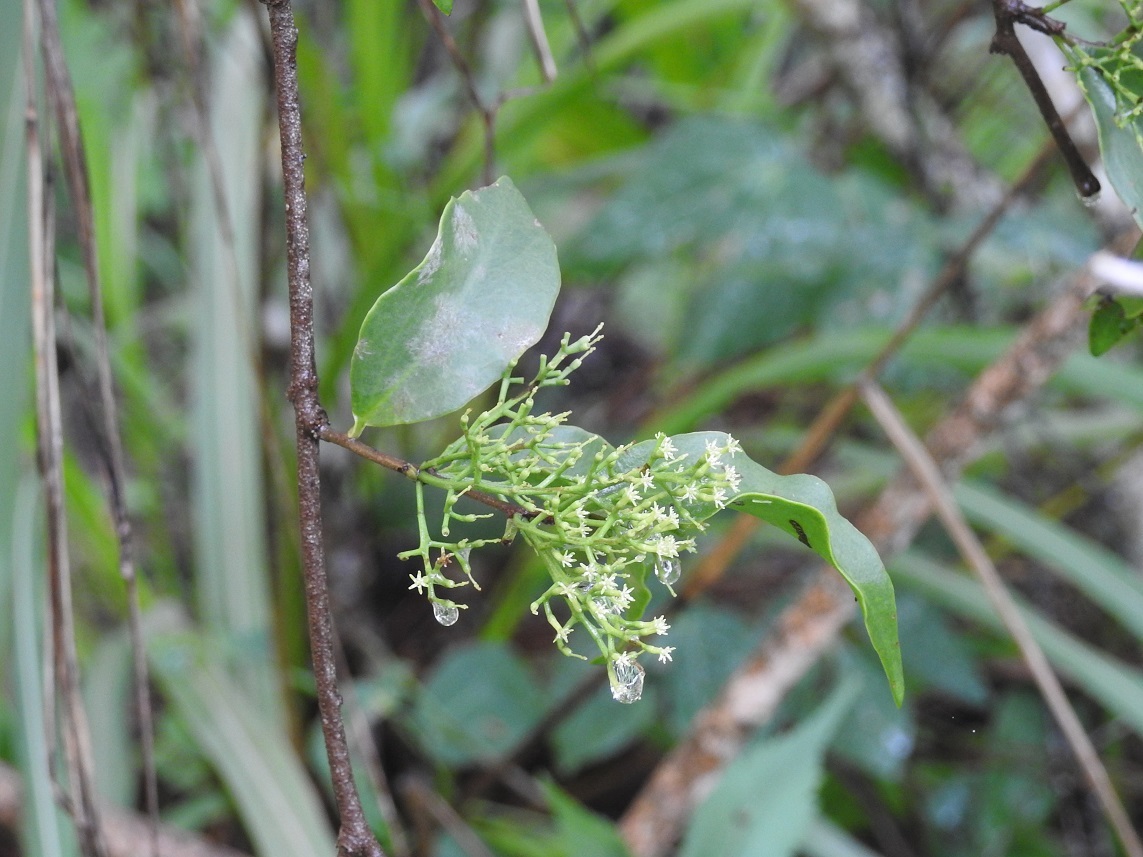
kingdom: Plantae
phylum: Tracheophyta
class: Magnoliopsida
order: Santalales
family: Loranthaceae
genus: Struthanthus
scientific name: Struthanthus deppeanus
